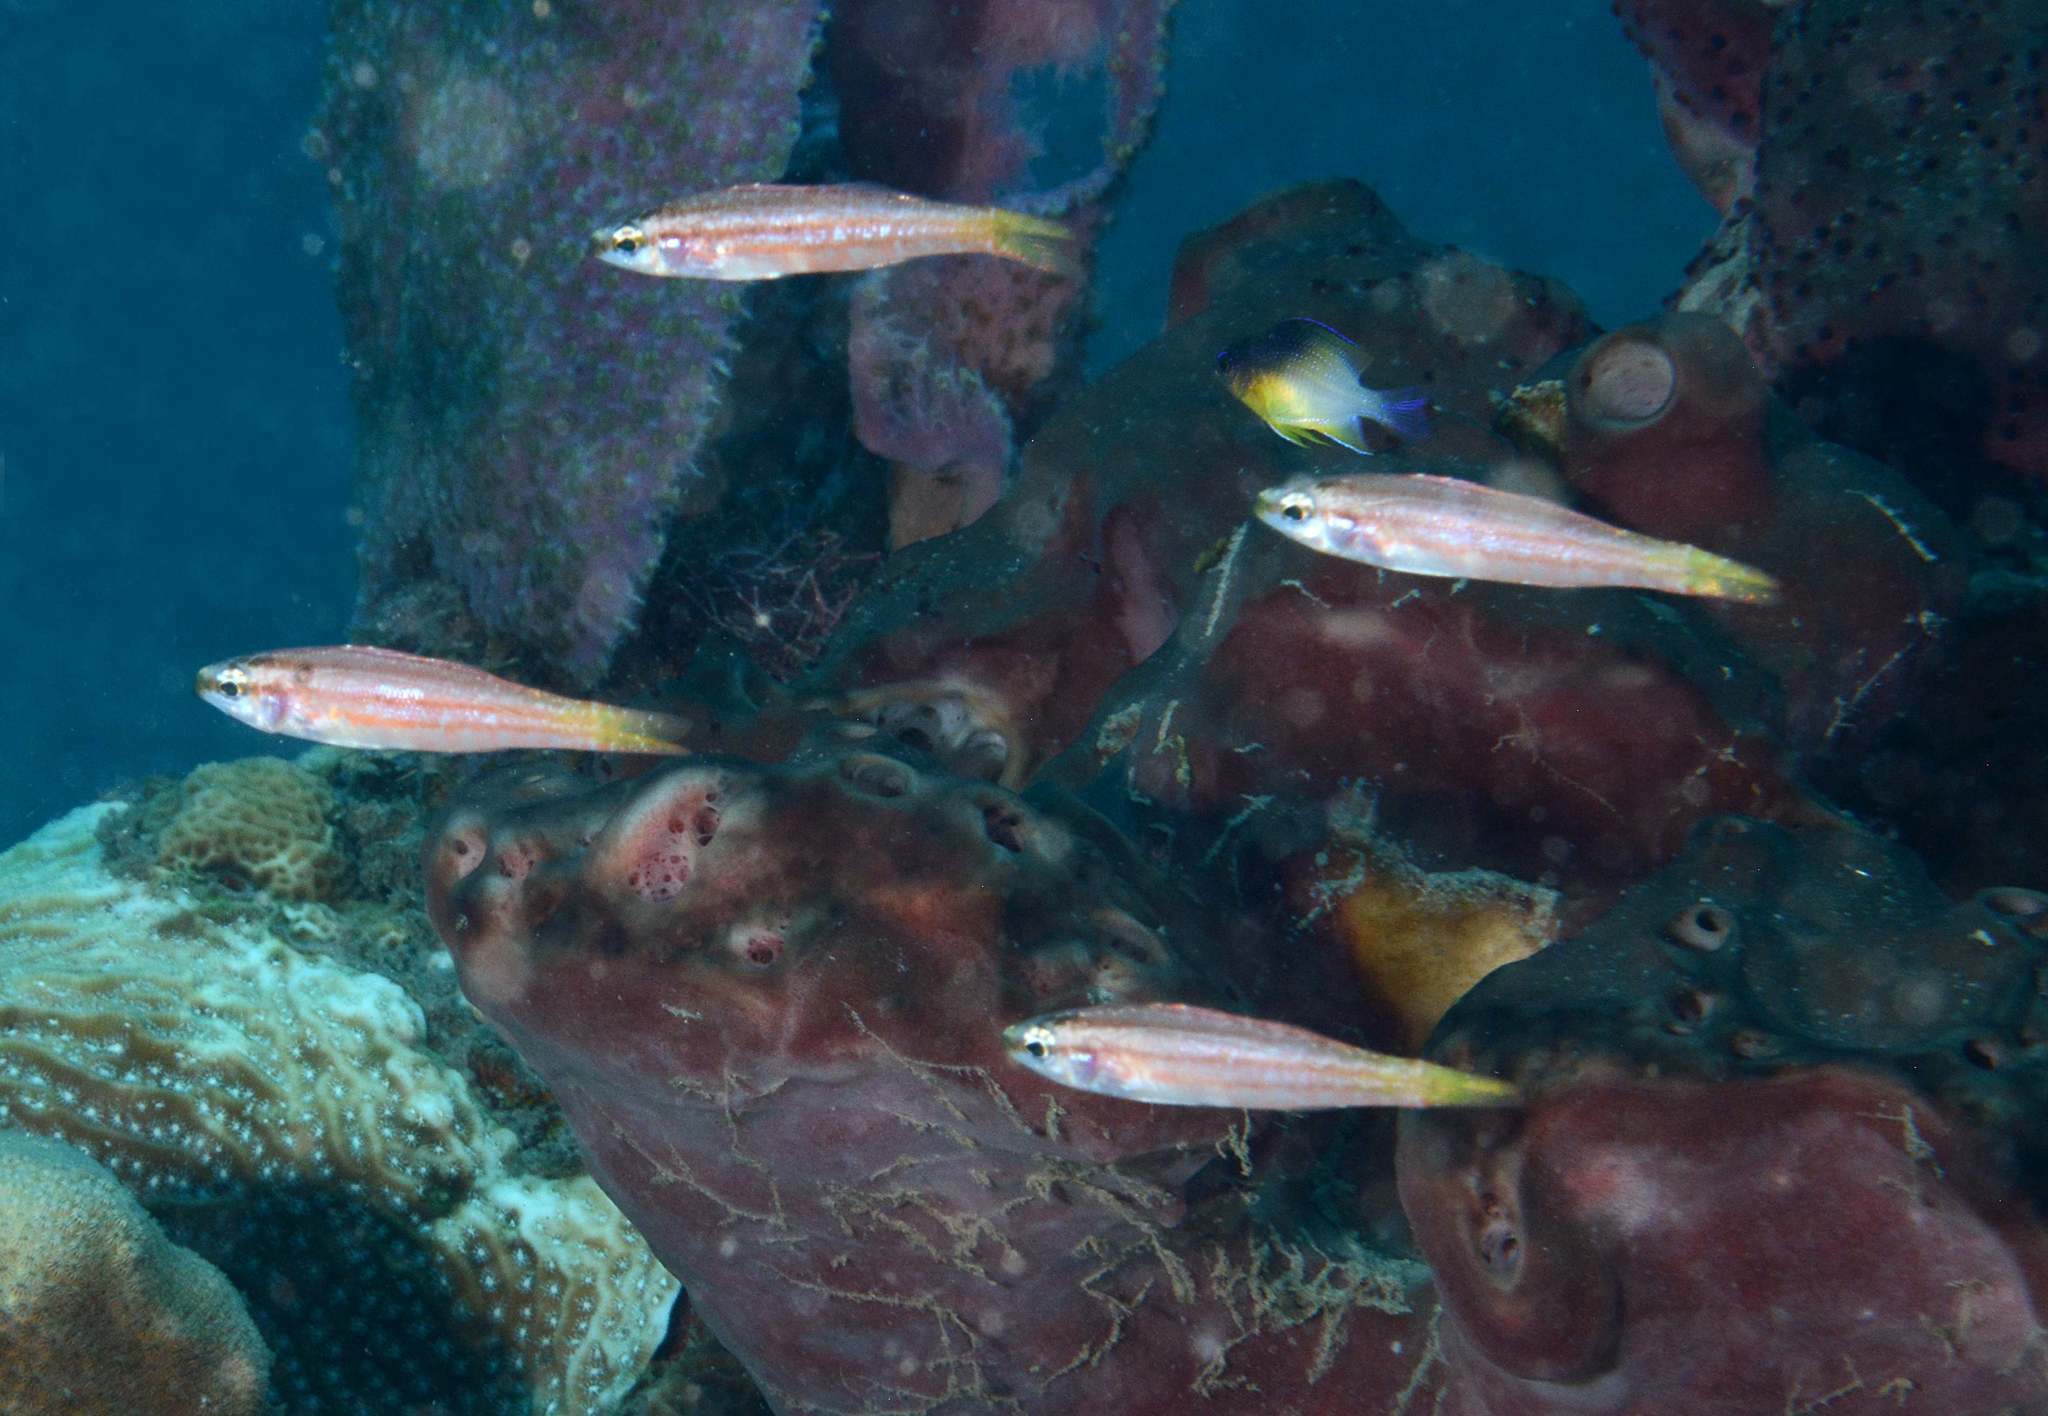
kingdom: Animalia
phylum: Chordata
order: Perciformes
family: Serranidae
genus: Schultzea
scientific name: Schultzea beta
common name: School bass
